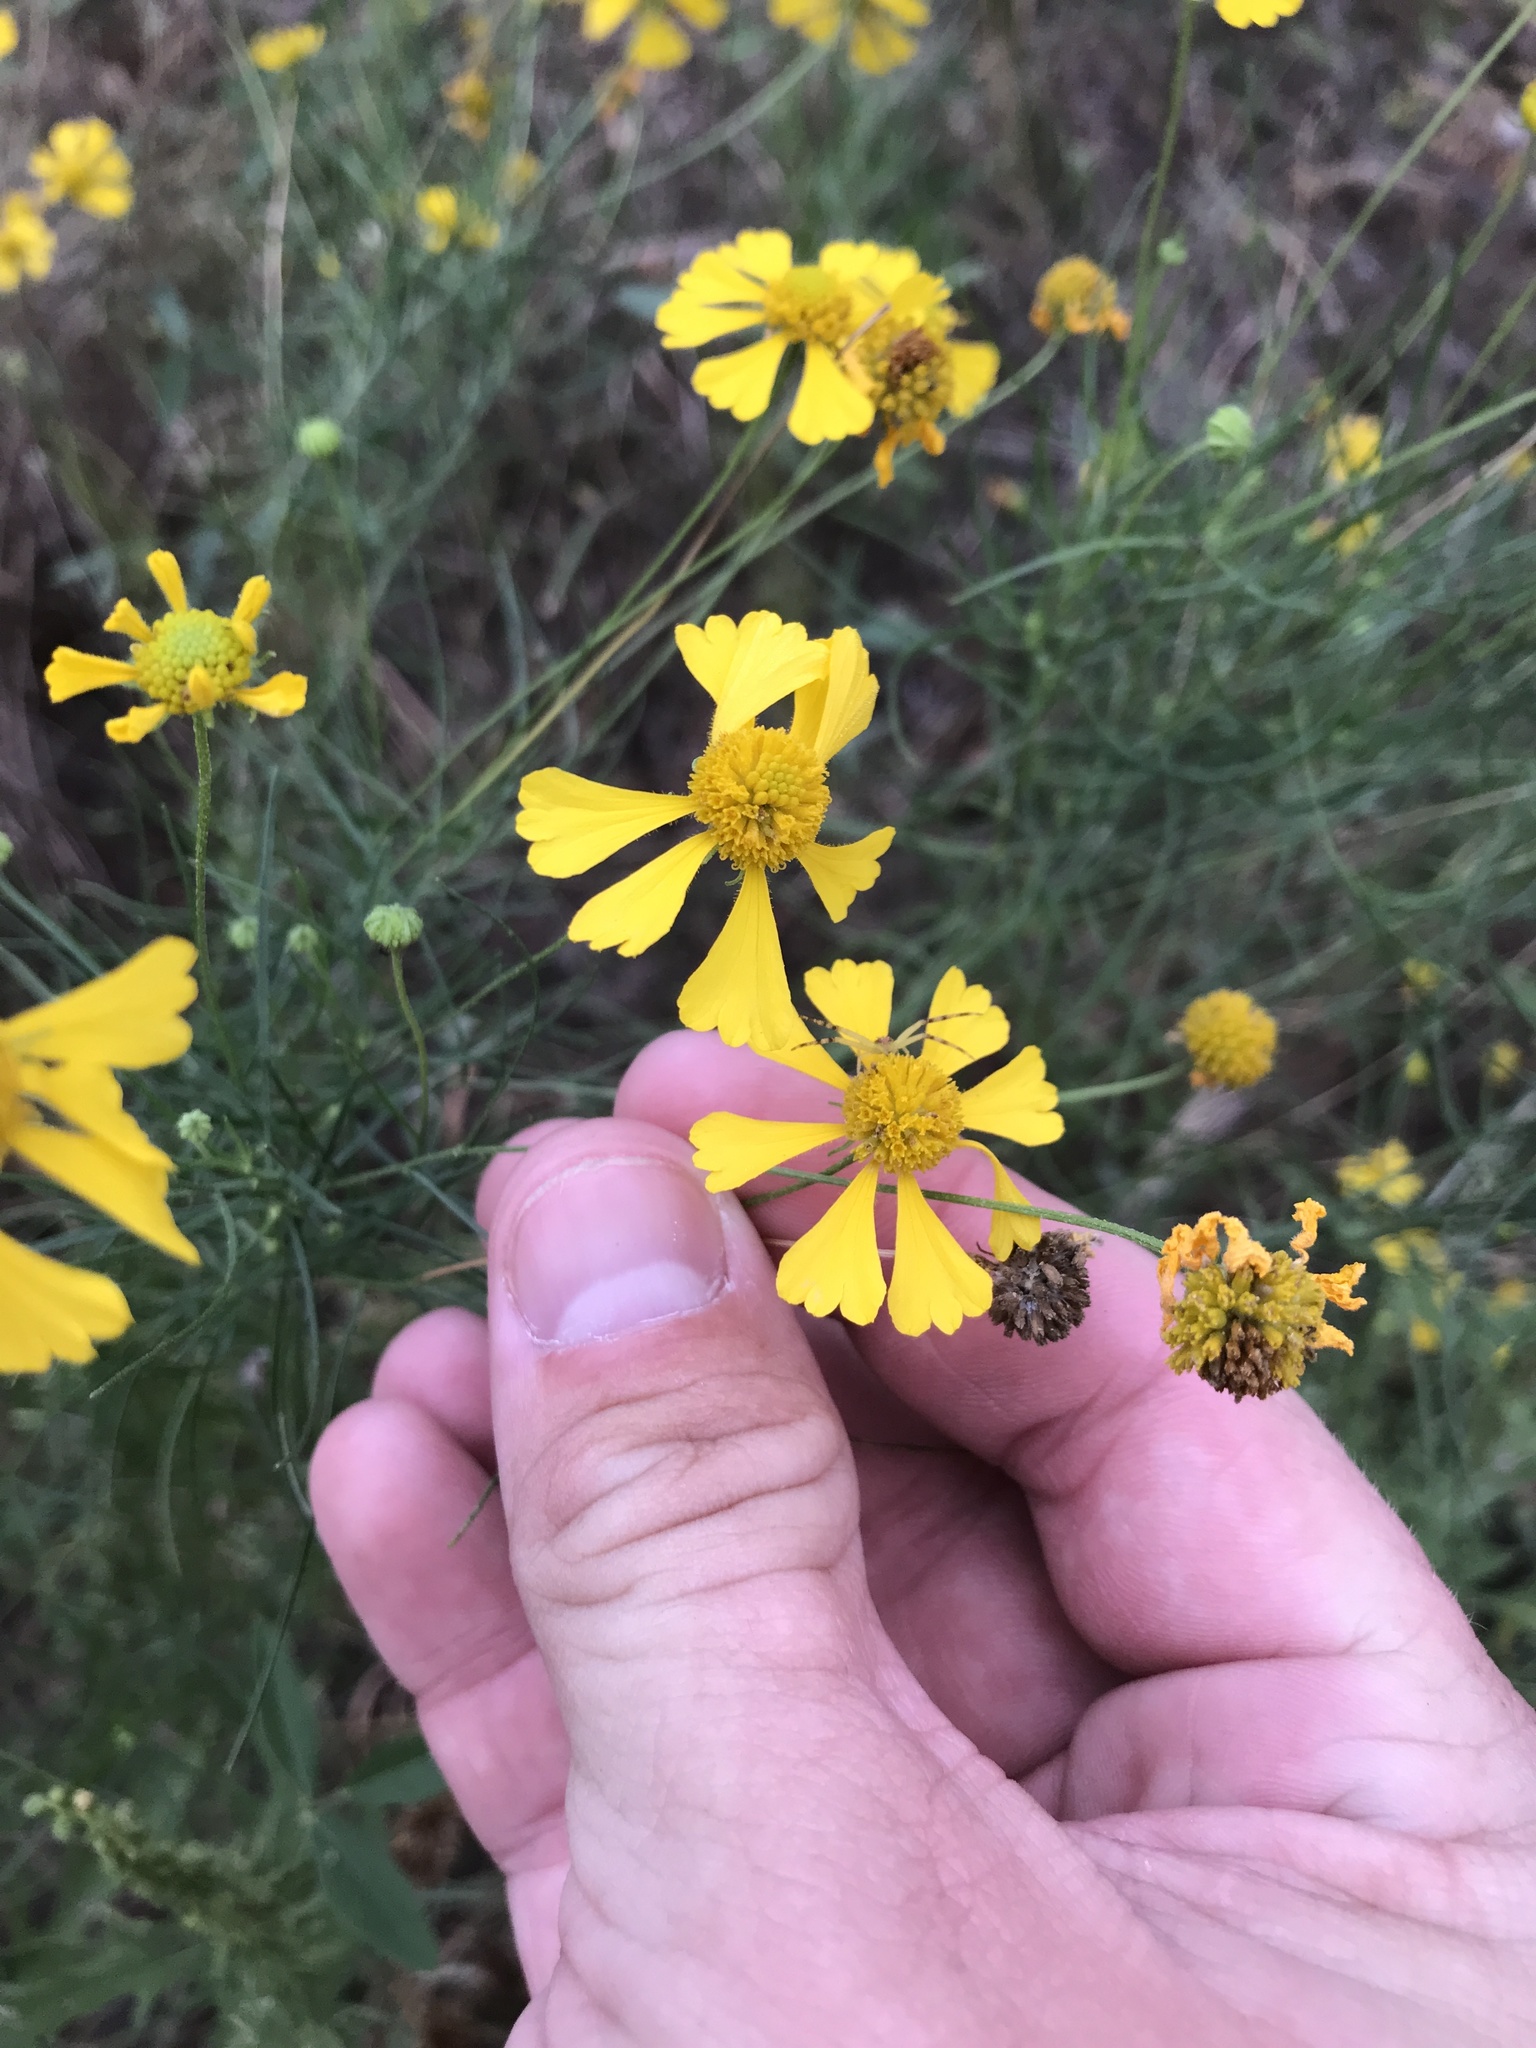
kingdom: Plantae
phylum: Tracheophyta
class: Magnoliopsida
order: Asterales
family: Asteraceae
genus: Helenium
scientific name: Helenium amarum
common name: Bitter sneezeweed
